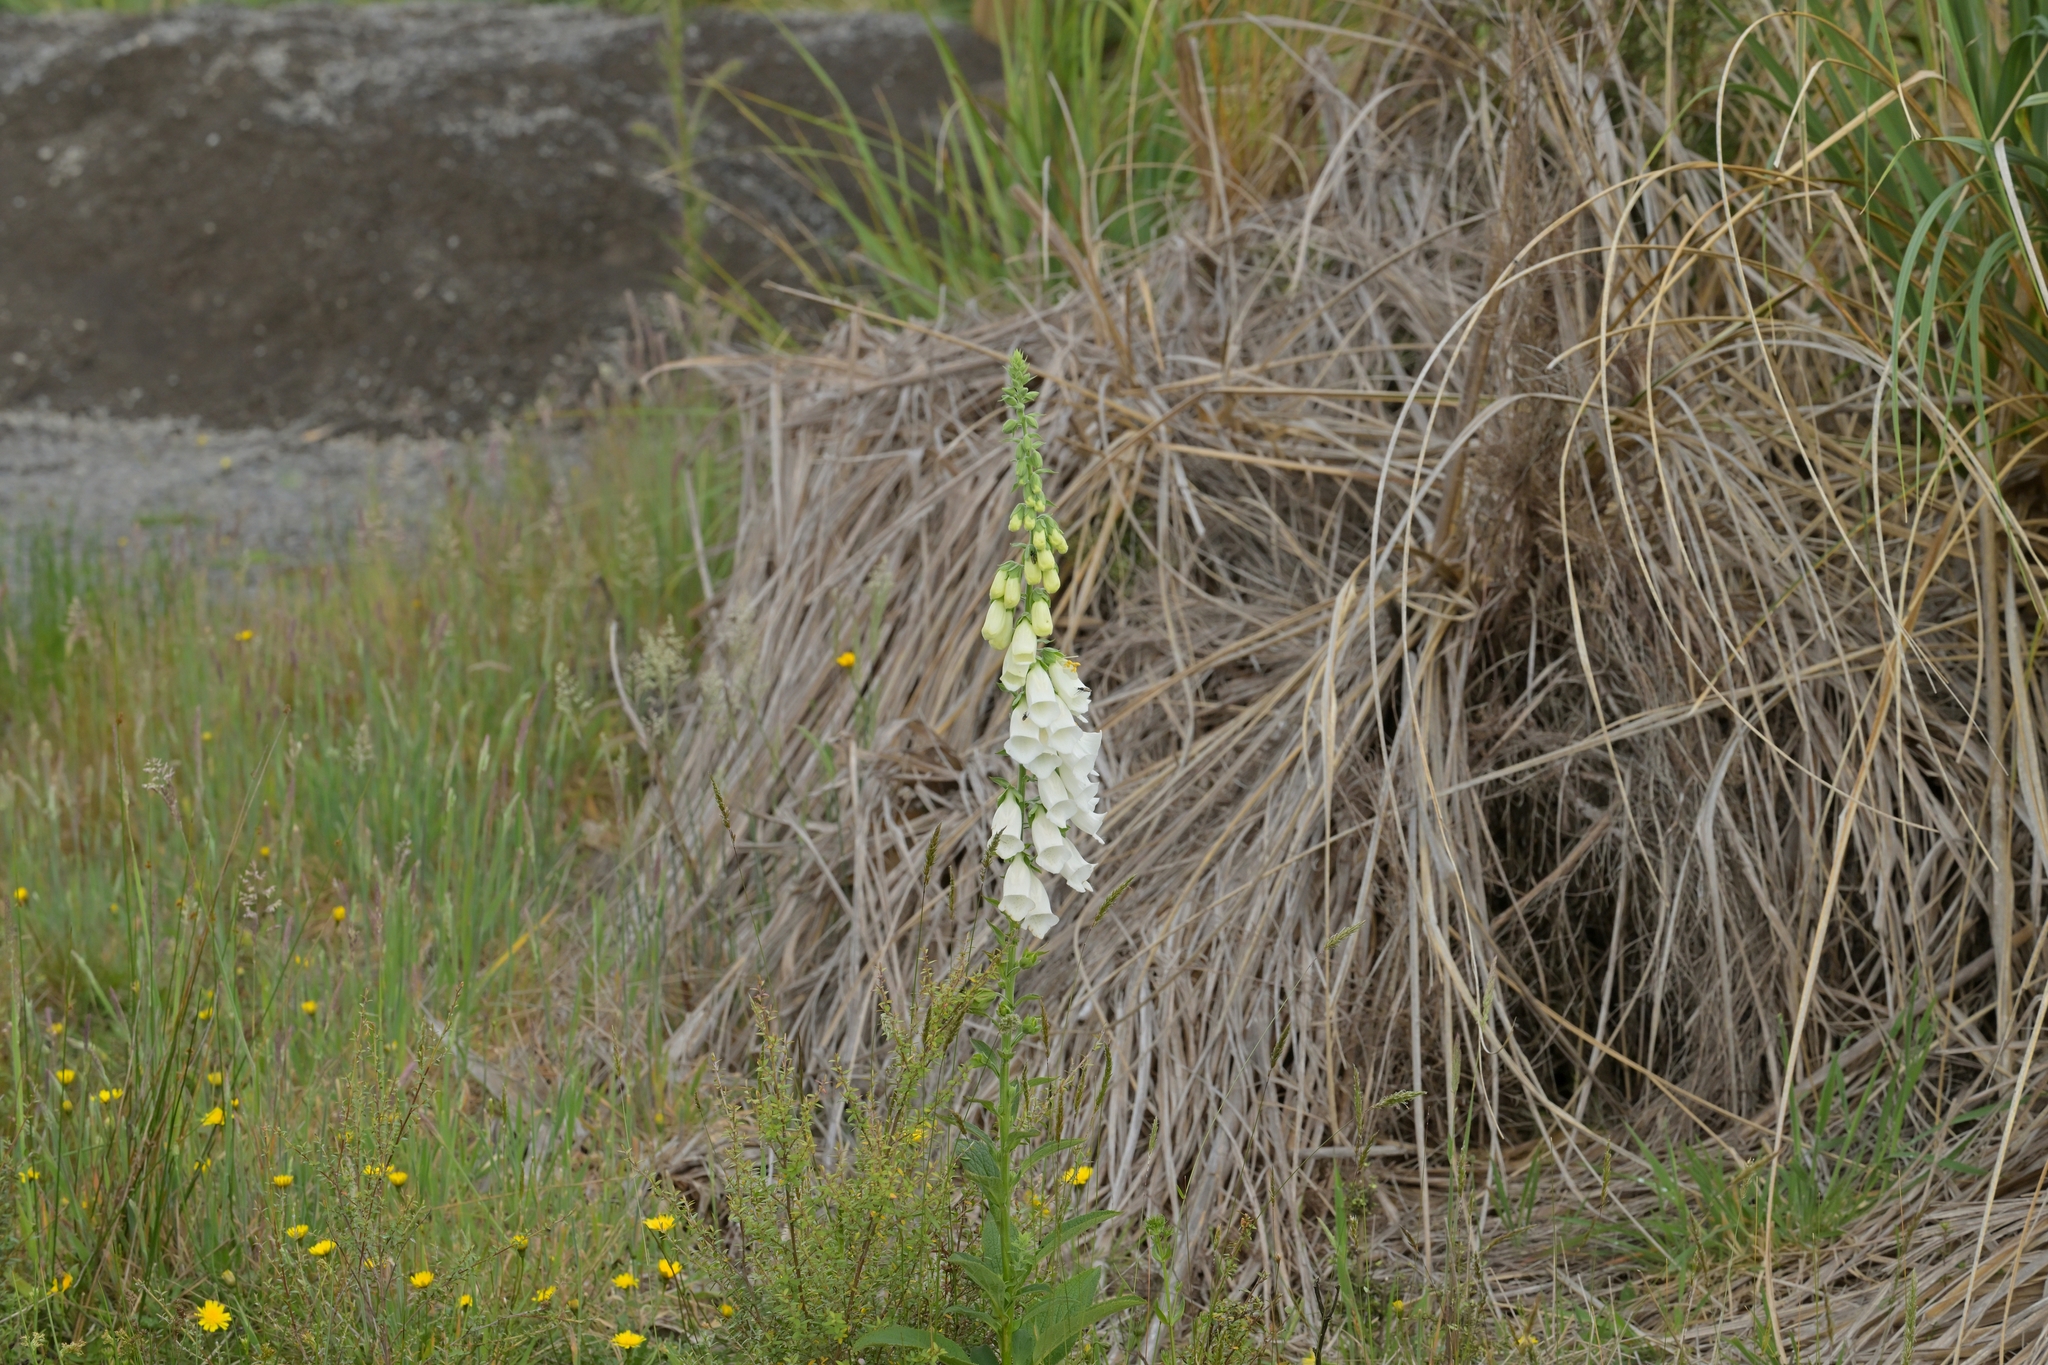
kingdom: Plantae
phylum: Tracheophyta
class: Magnoliopsida
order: Lamiales
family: Plantaginaceae
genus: Digitalis
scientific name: Digitalis purpurea
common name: Foxglove
